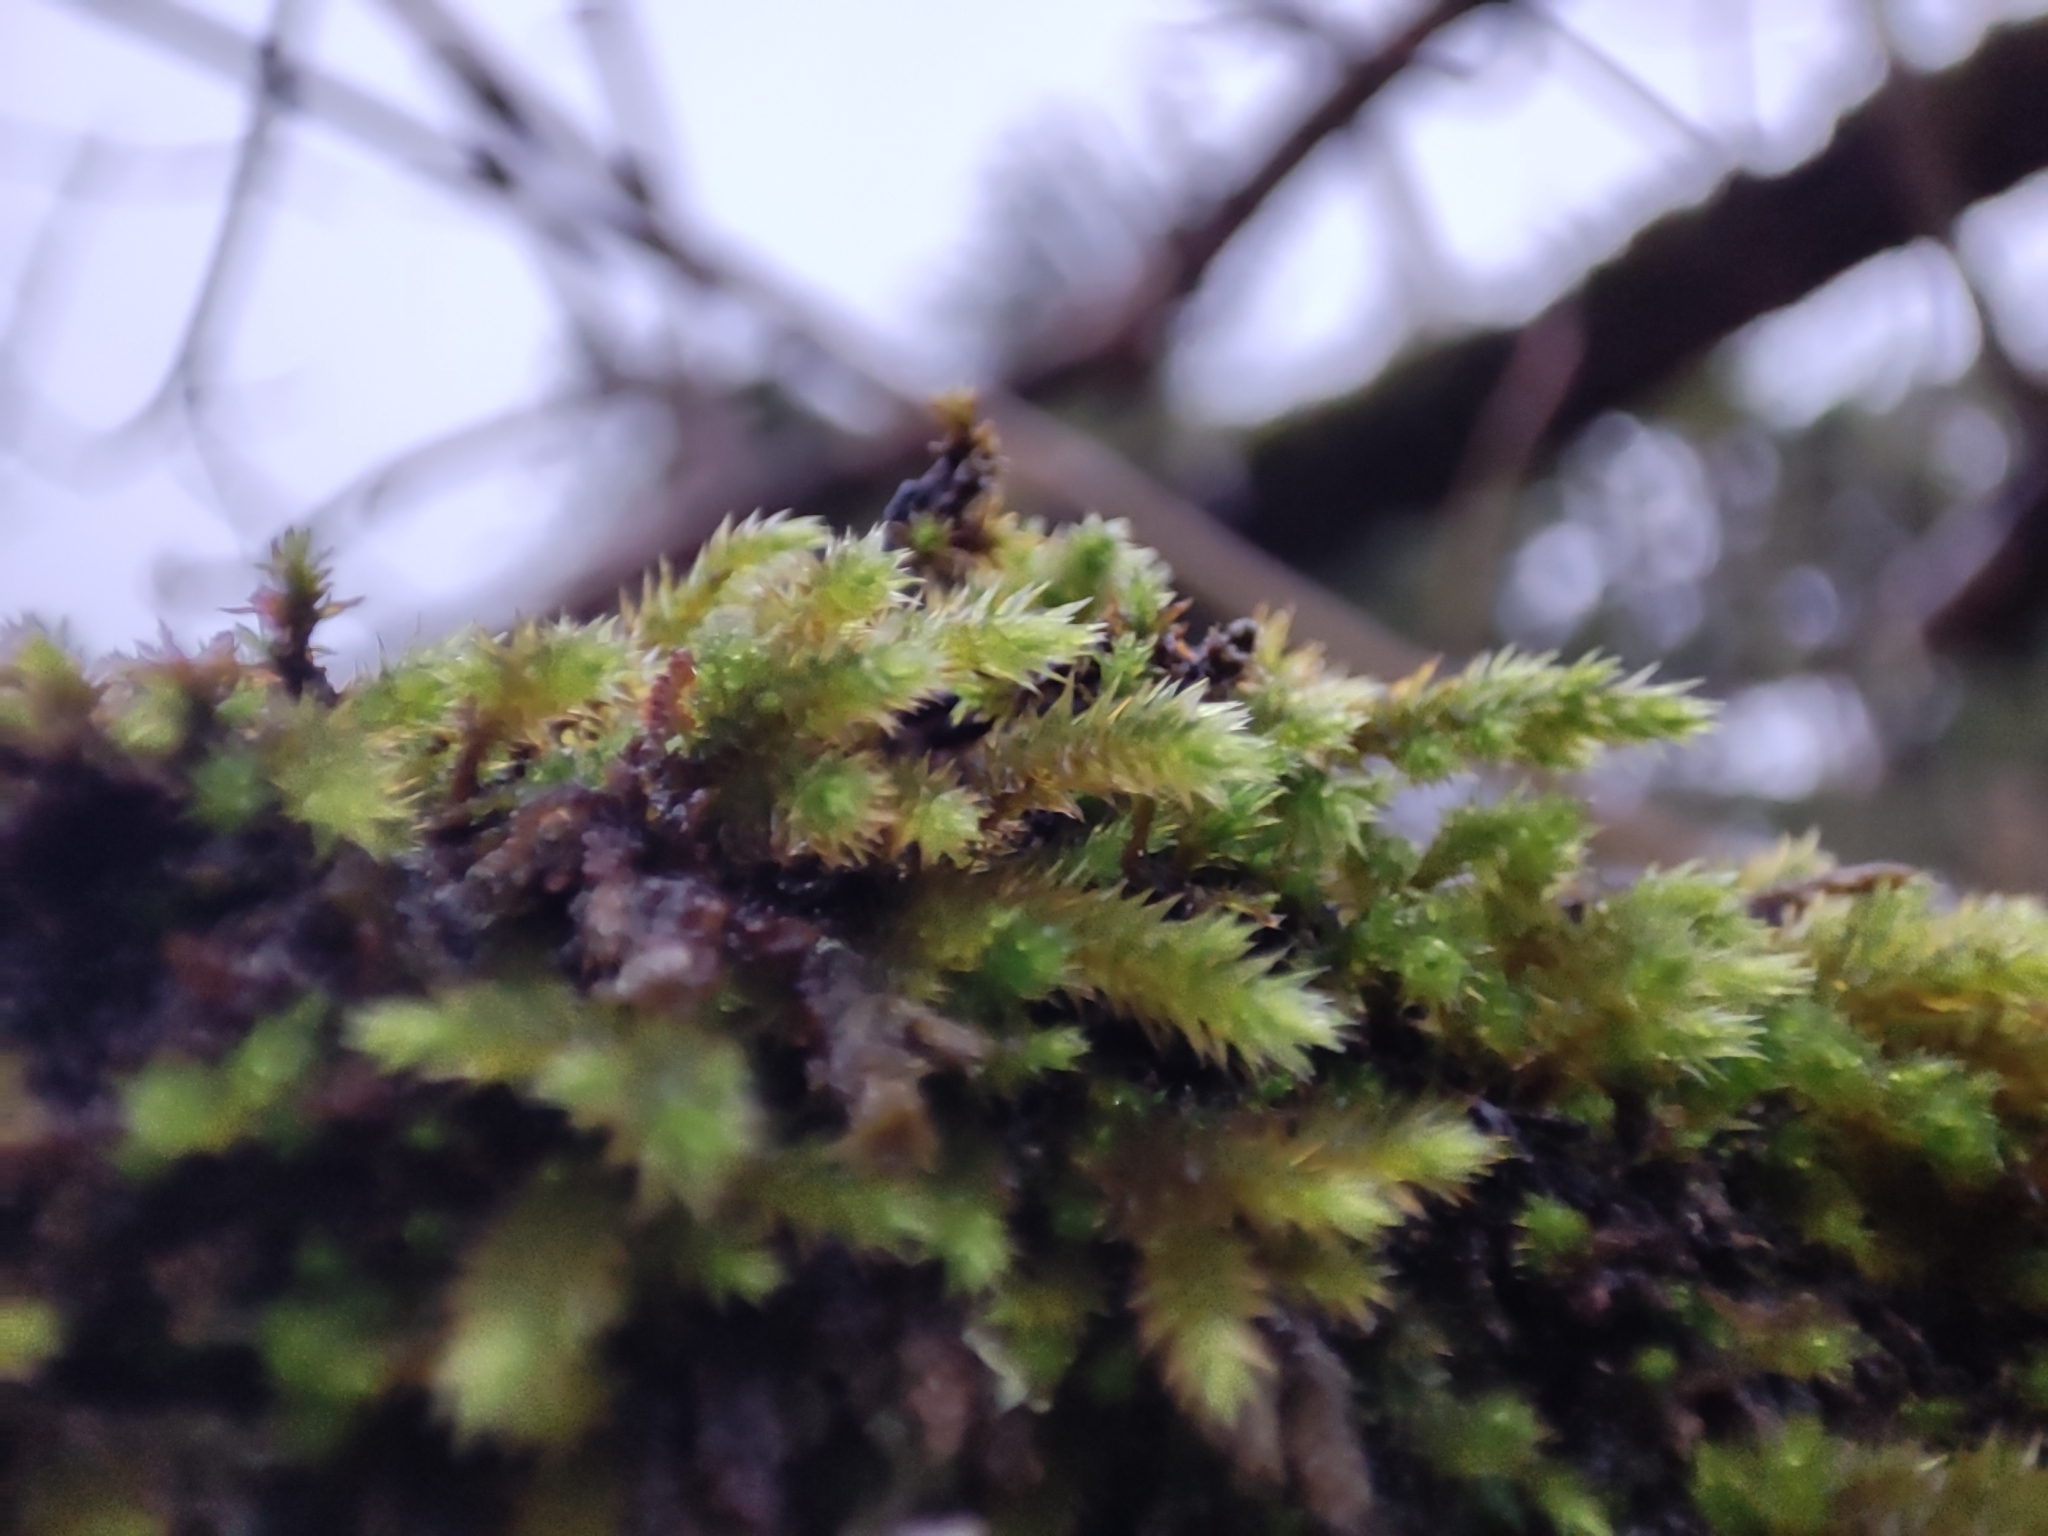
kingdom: Plantae
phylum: Bryophyta
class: Bryopsida
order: Hypnales
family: Leucodontaceae
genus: Leucodon
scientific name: Leucodon sciuroides
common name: Squirrel-tail moss
